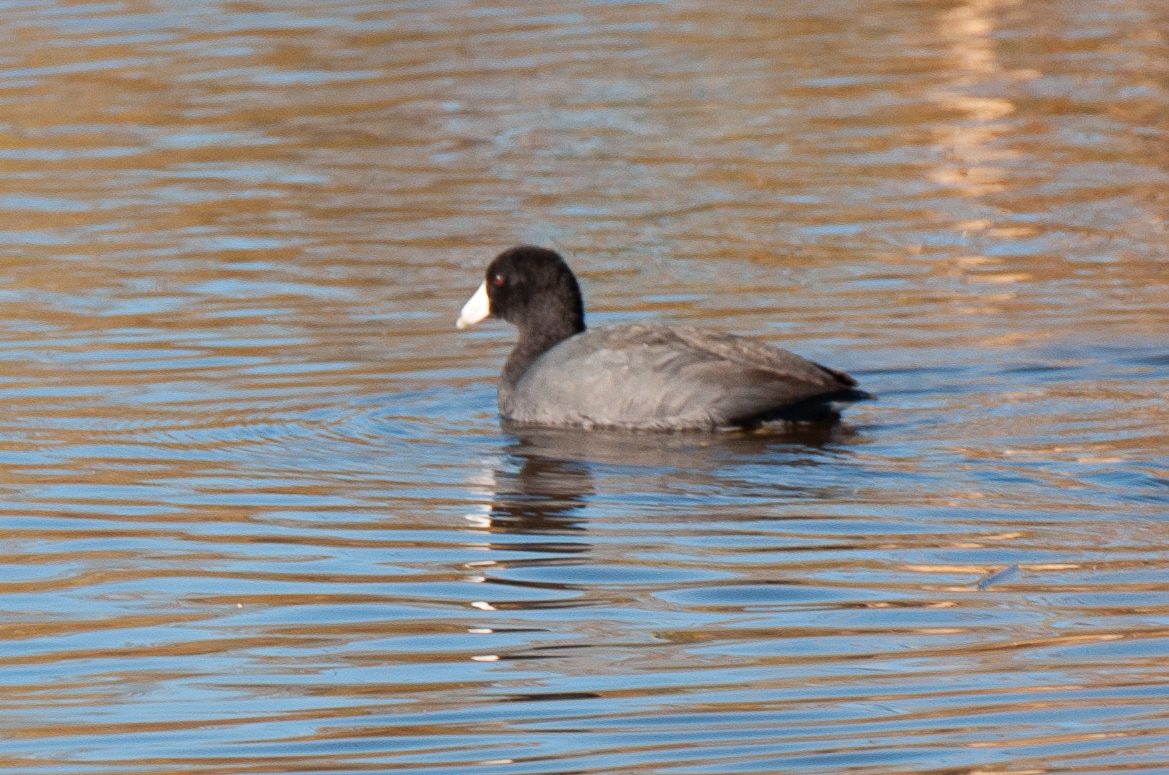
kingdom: Animalia
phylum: Chordata
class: Aves
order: Gruiformes
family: Rallidae
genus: Fulica
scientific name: Fulica americana
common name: American coot
